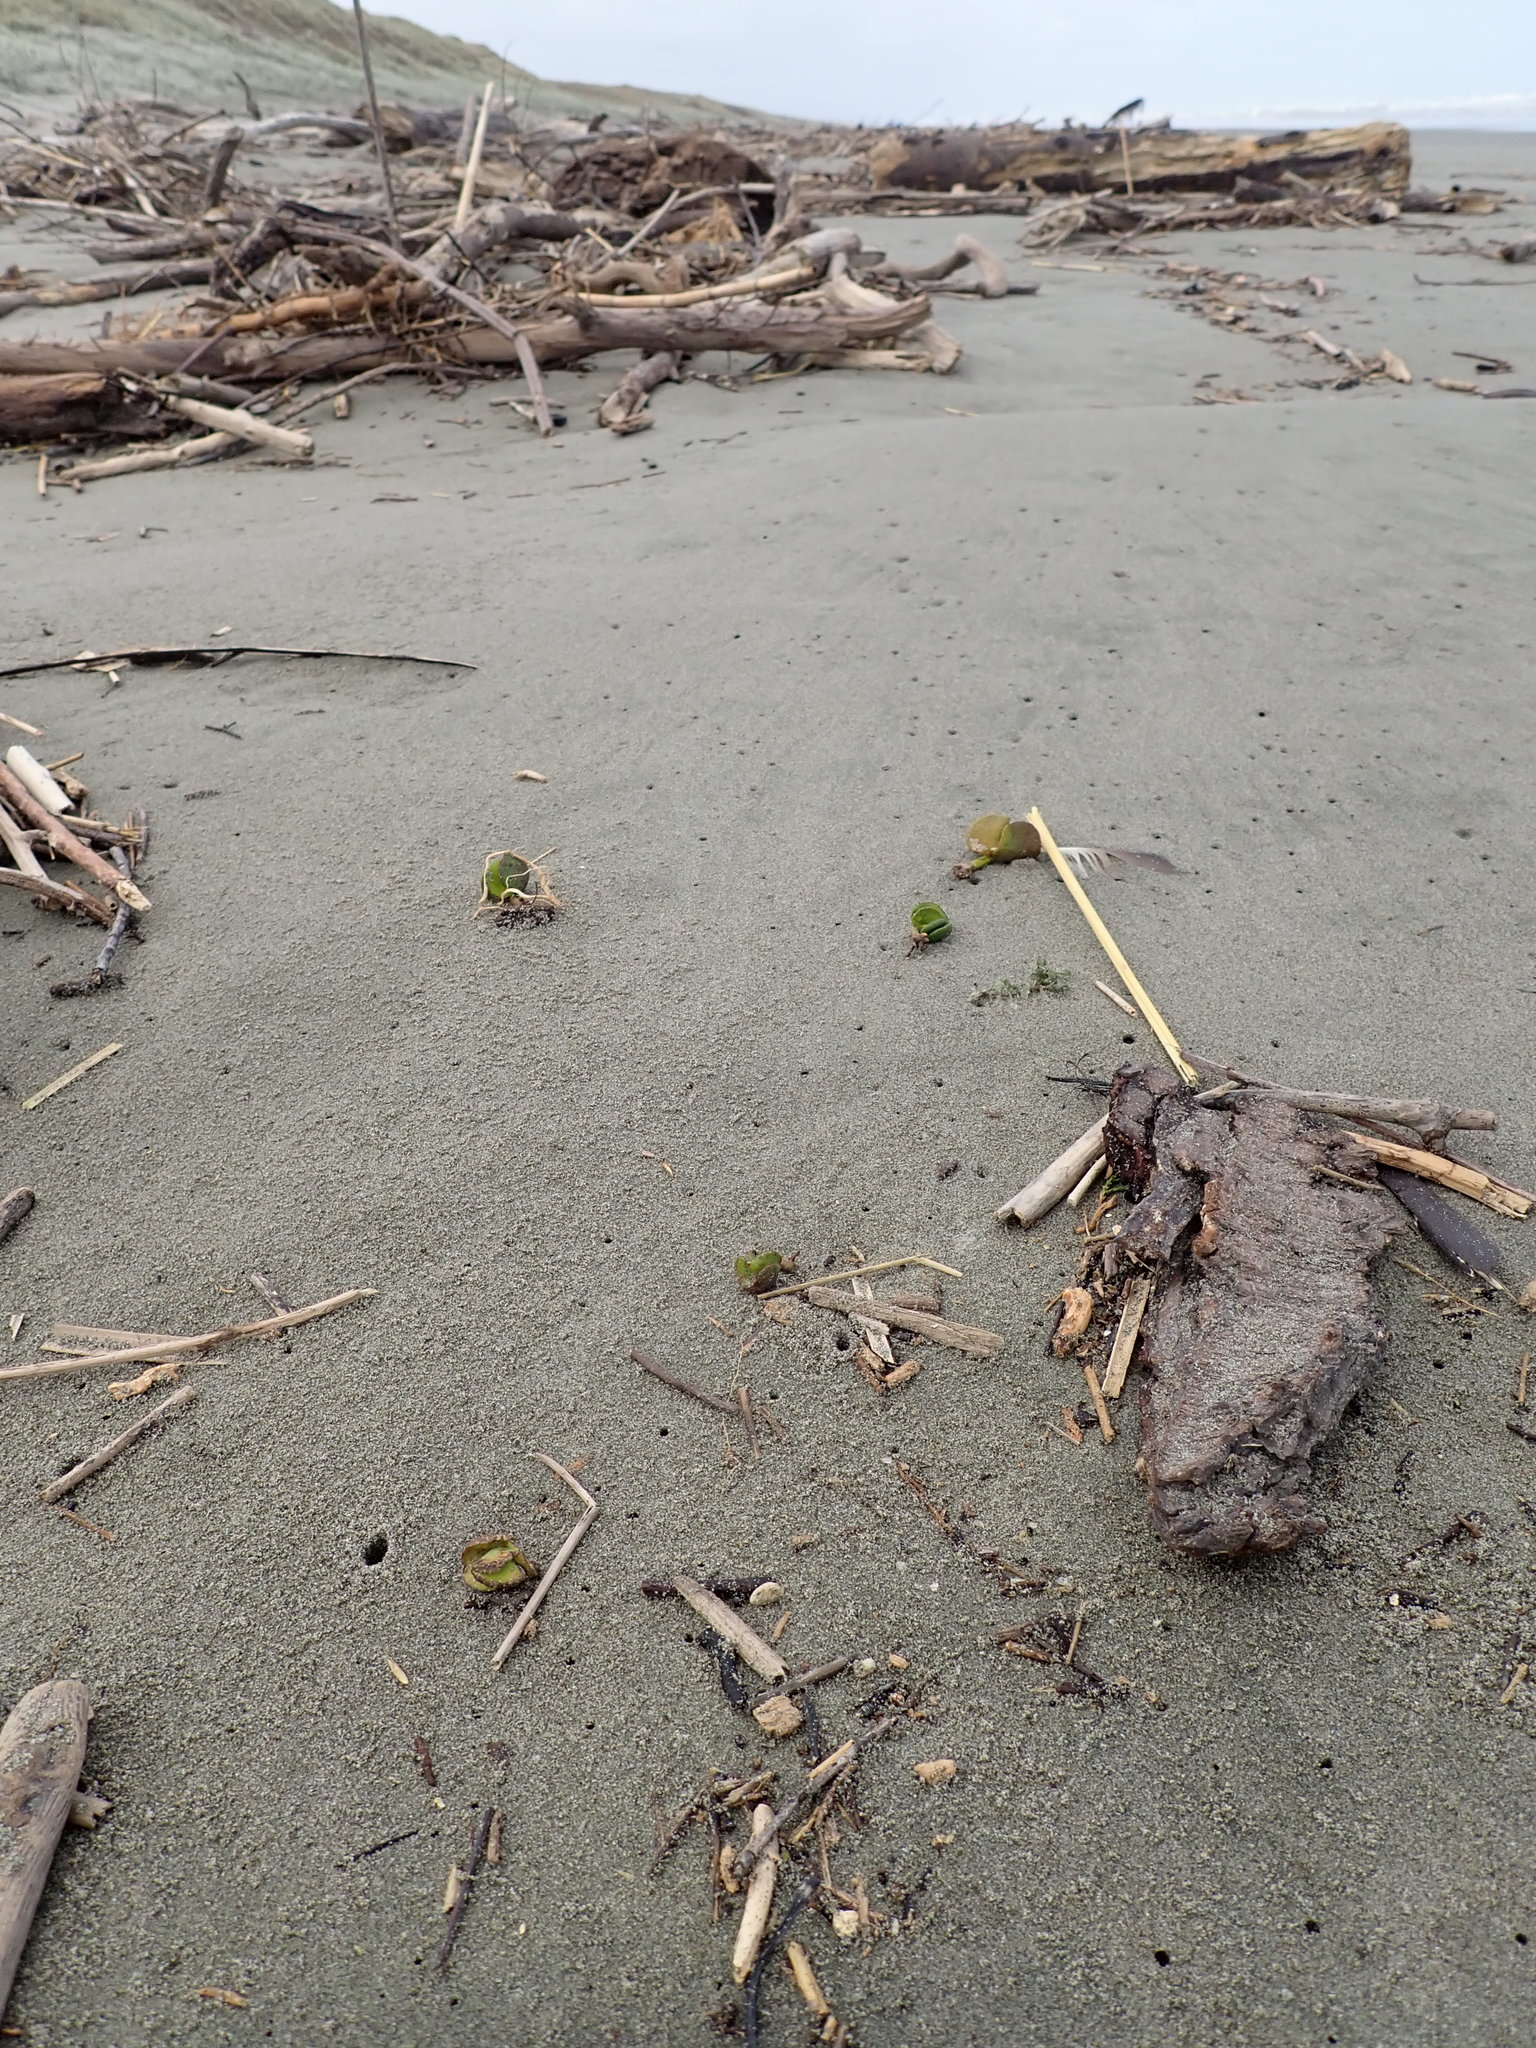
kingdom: Plantae
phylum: Tracheophyta
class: Magnoliopsida
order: Lamiales
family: Acanthaceae
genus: Avicennia
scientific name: Avicennia marina
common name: Gray mangrove
